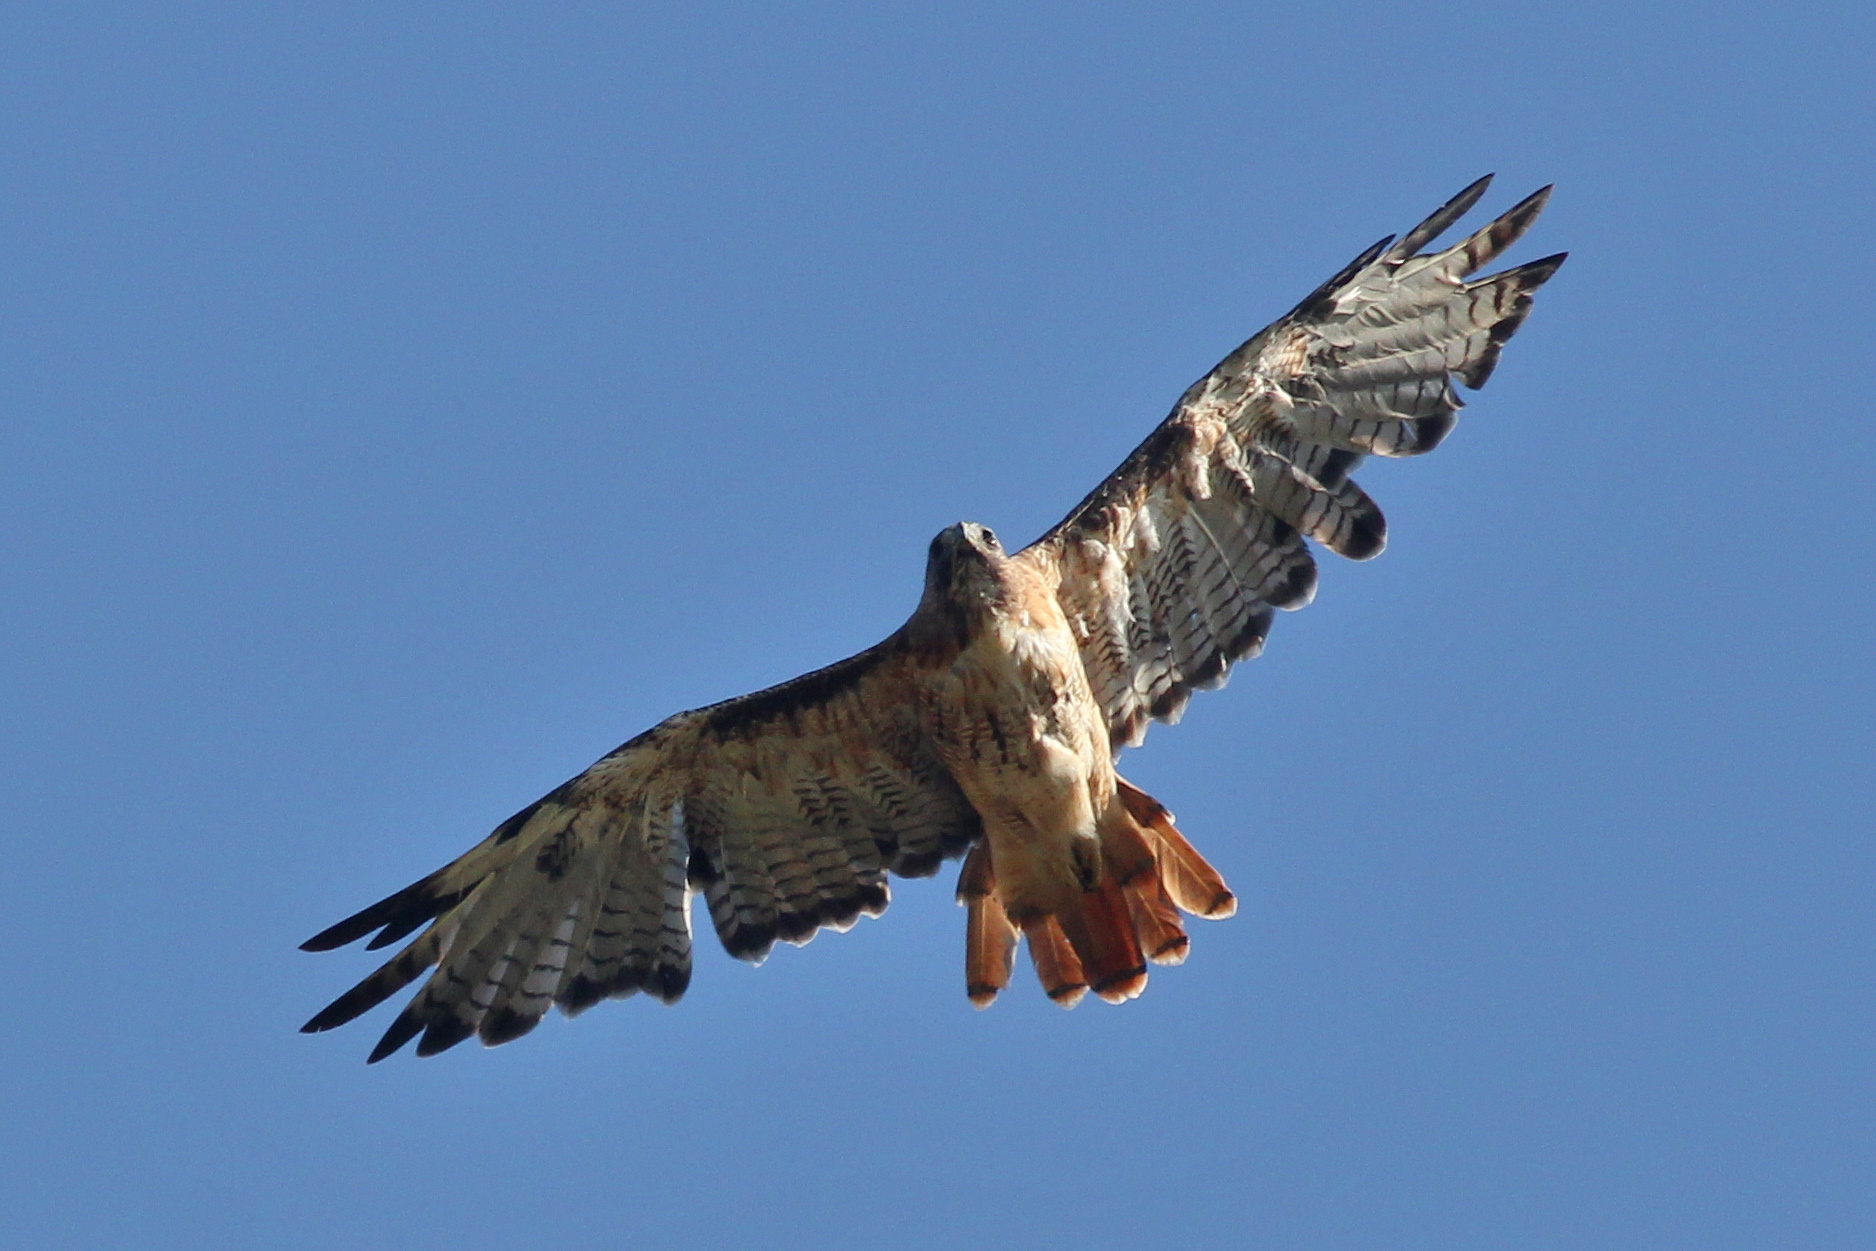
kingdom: Animalia
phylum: Chordata
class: Aves
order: Accipitriformes
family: Accipitridae
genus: Buteo
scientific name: Buteo jamaicensis
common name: Red-tailed hawk
